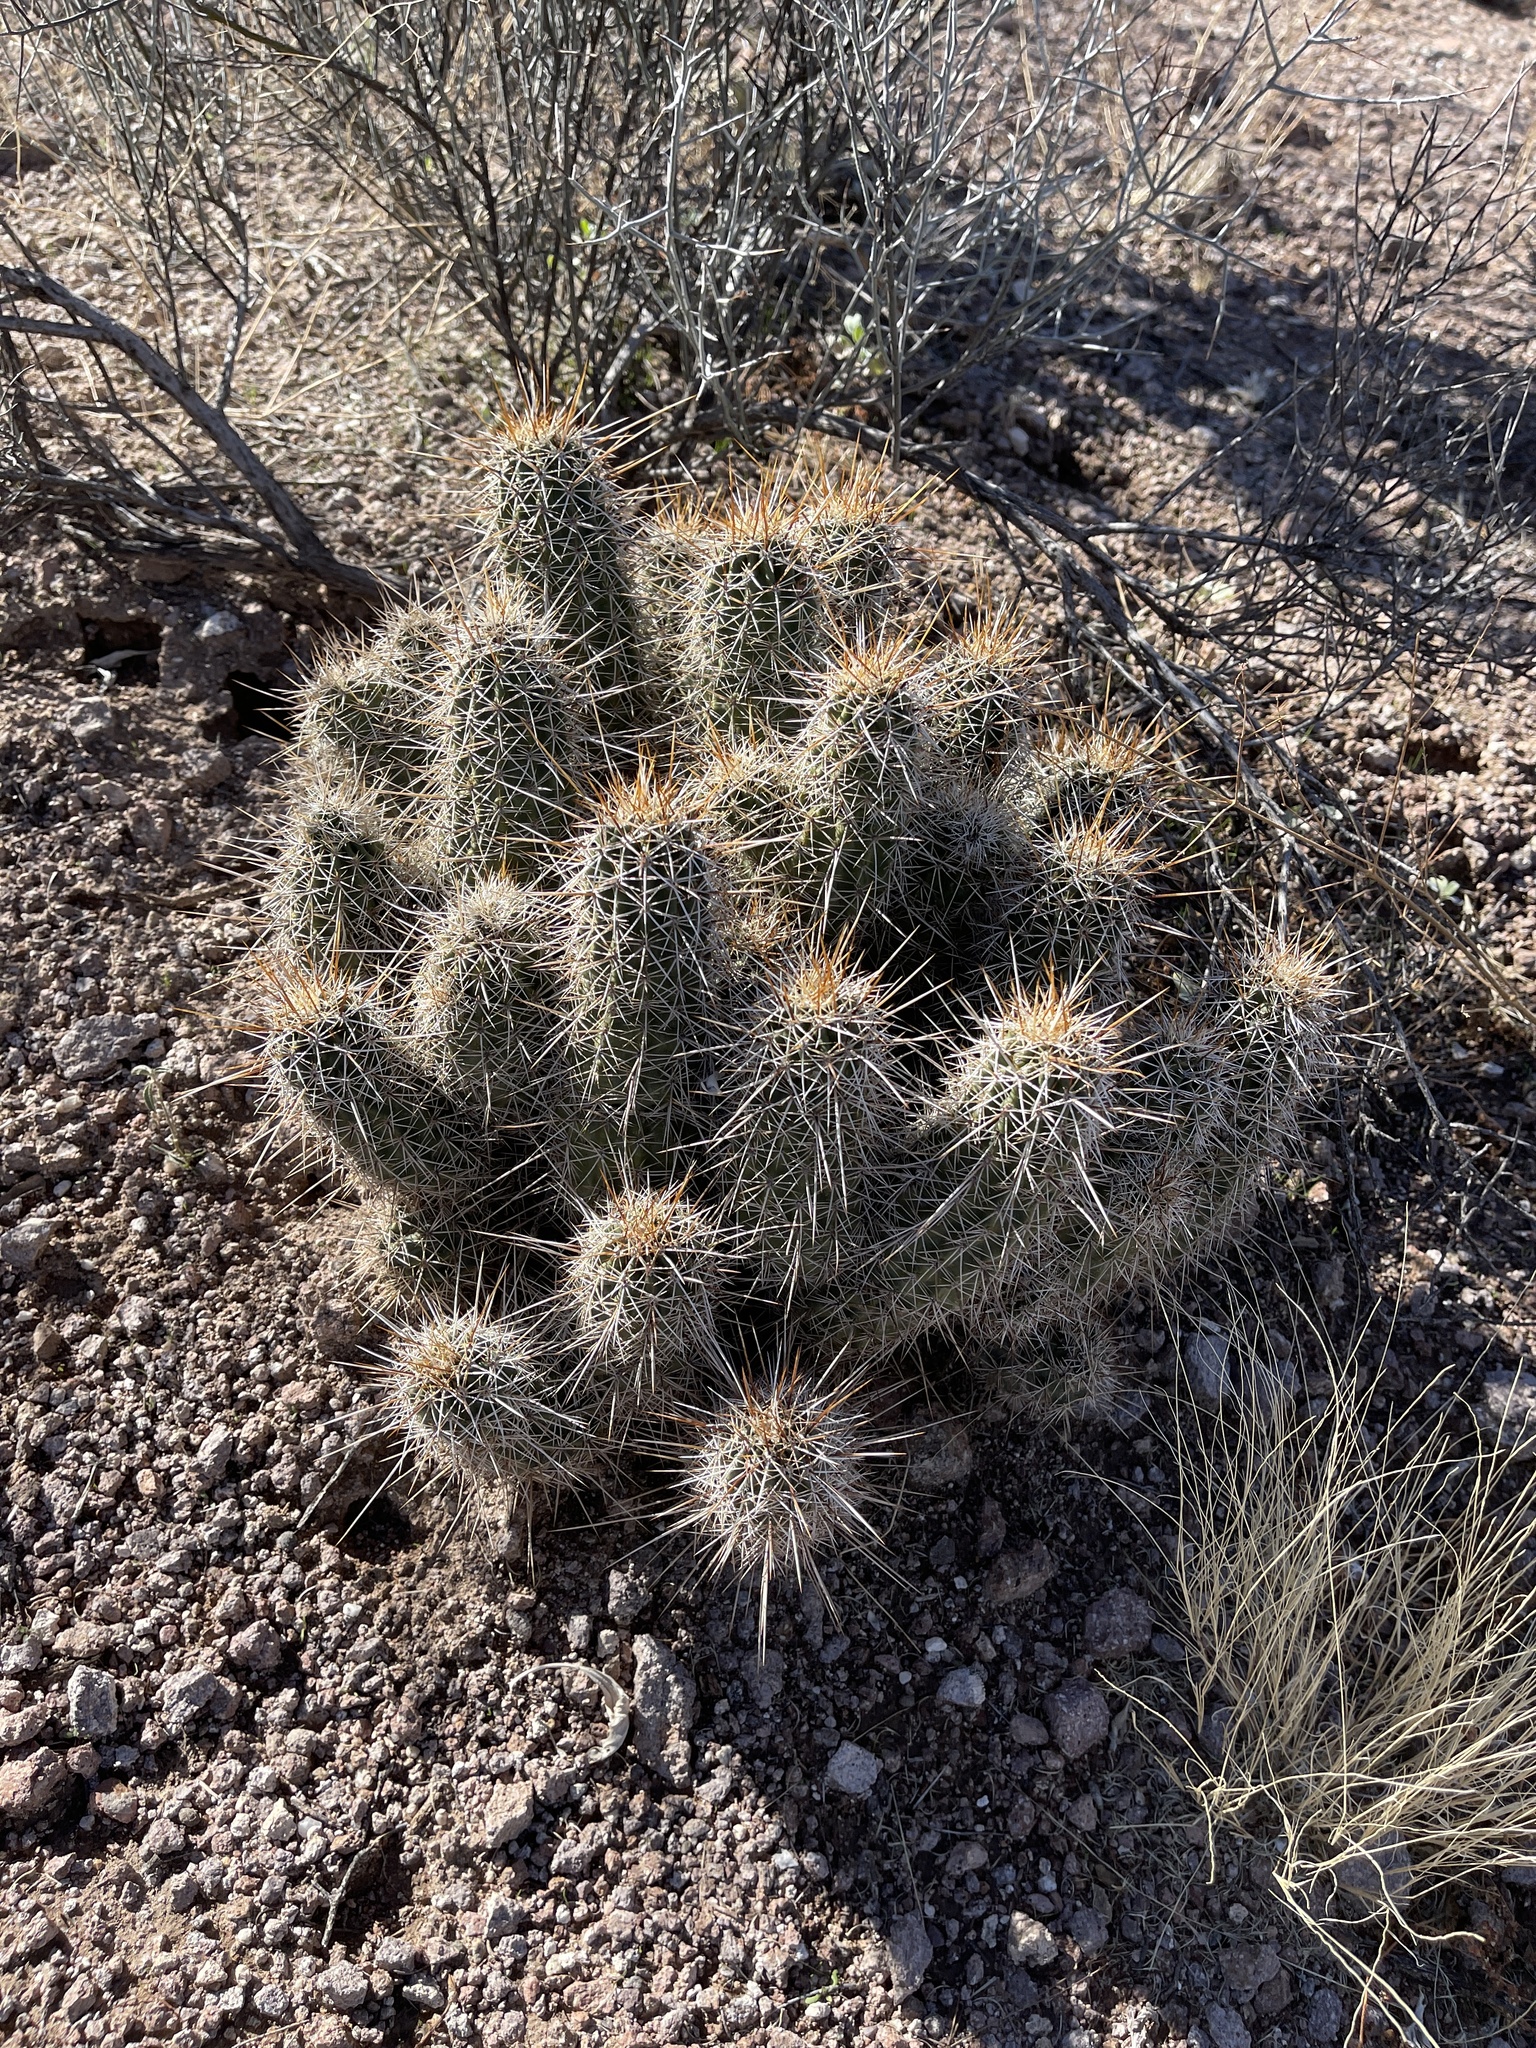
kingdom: Plantae
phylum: Tracheophyta
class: Magnoliopsida
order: Caryophyllales
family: Cactaceae
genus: Echinocereus
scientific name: Echinocereus fasciculatus
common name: Bundle hedgehog
